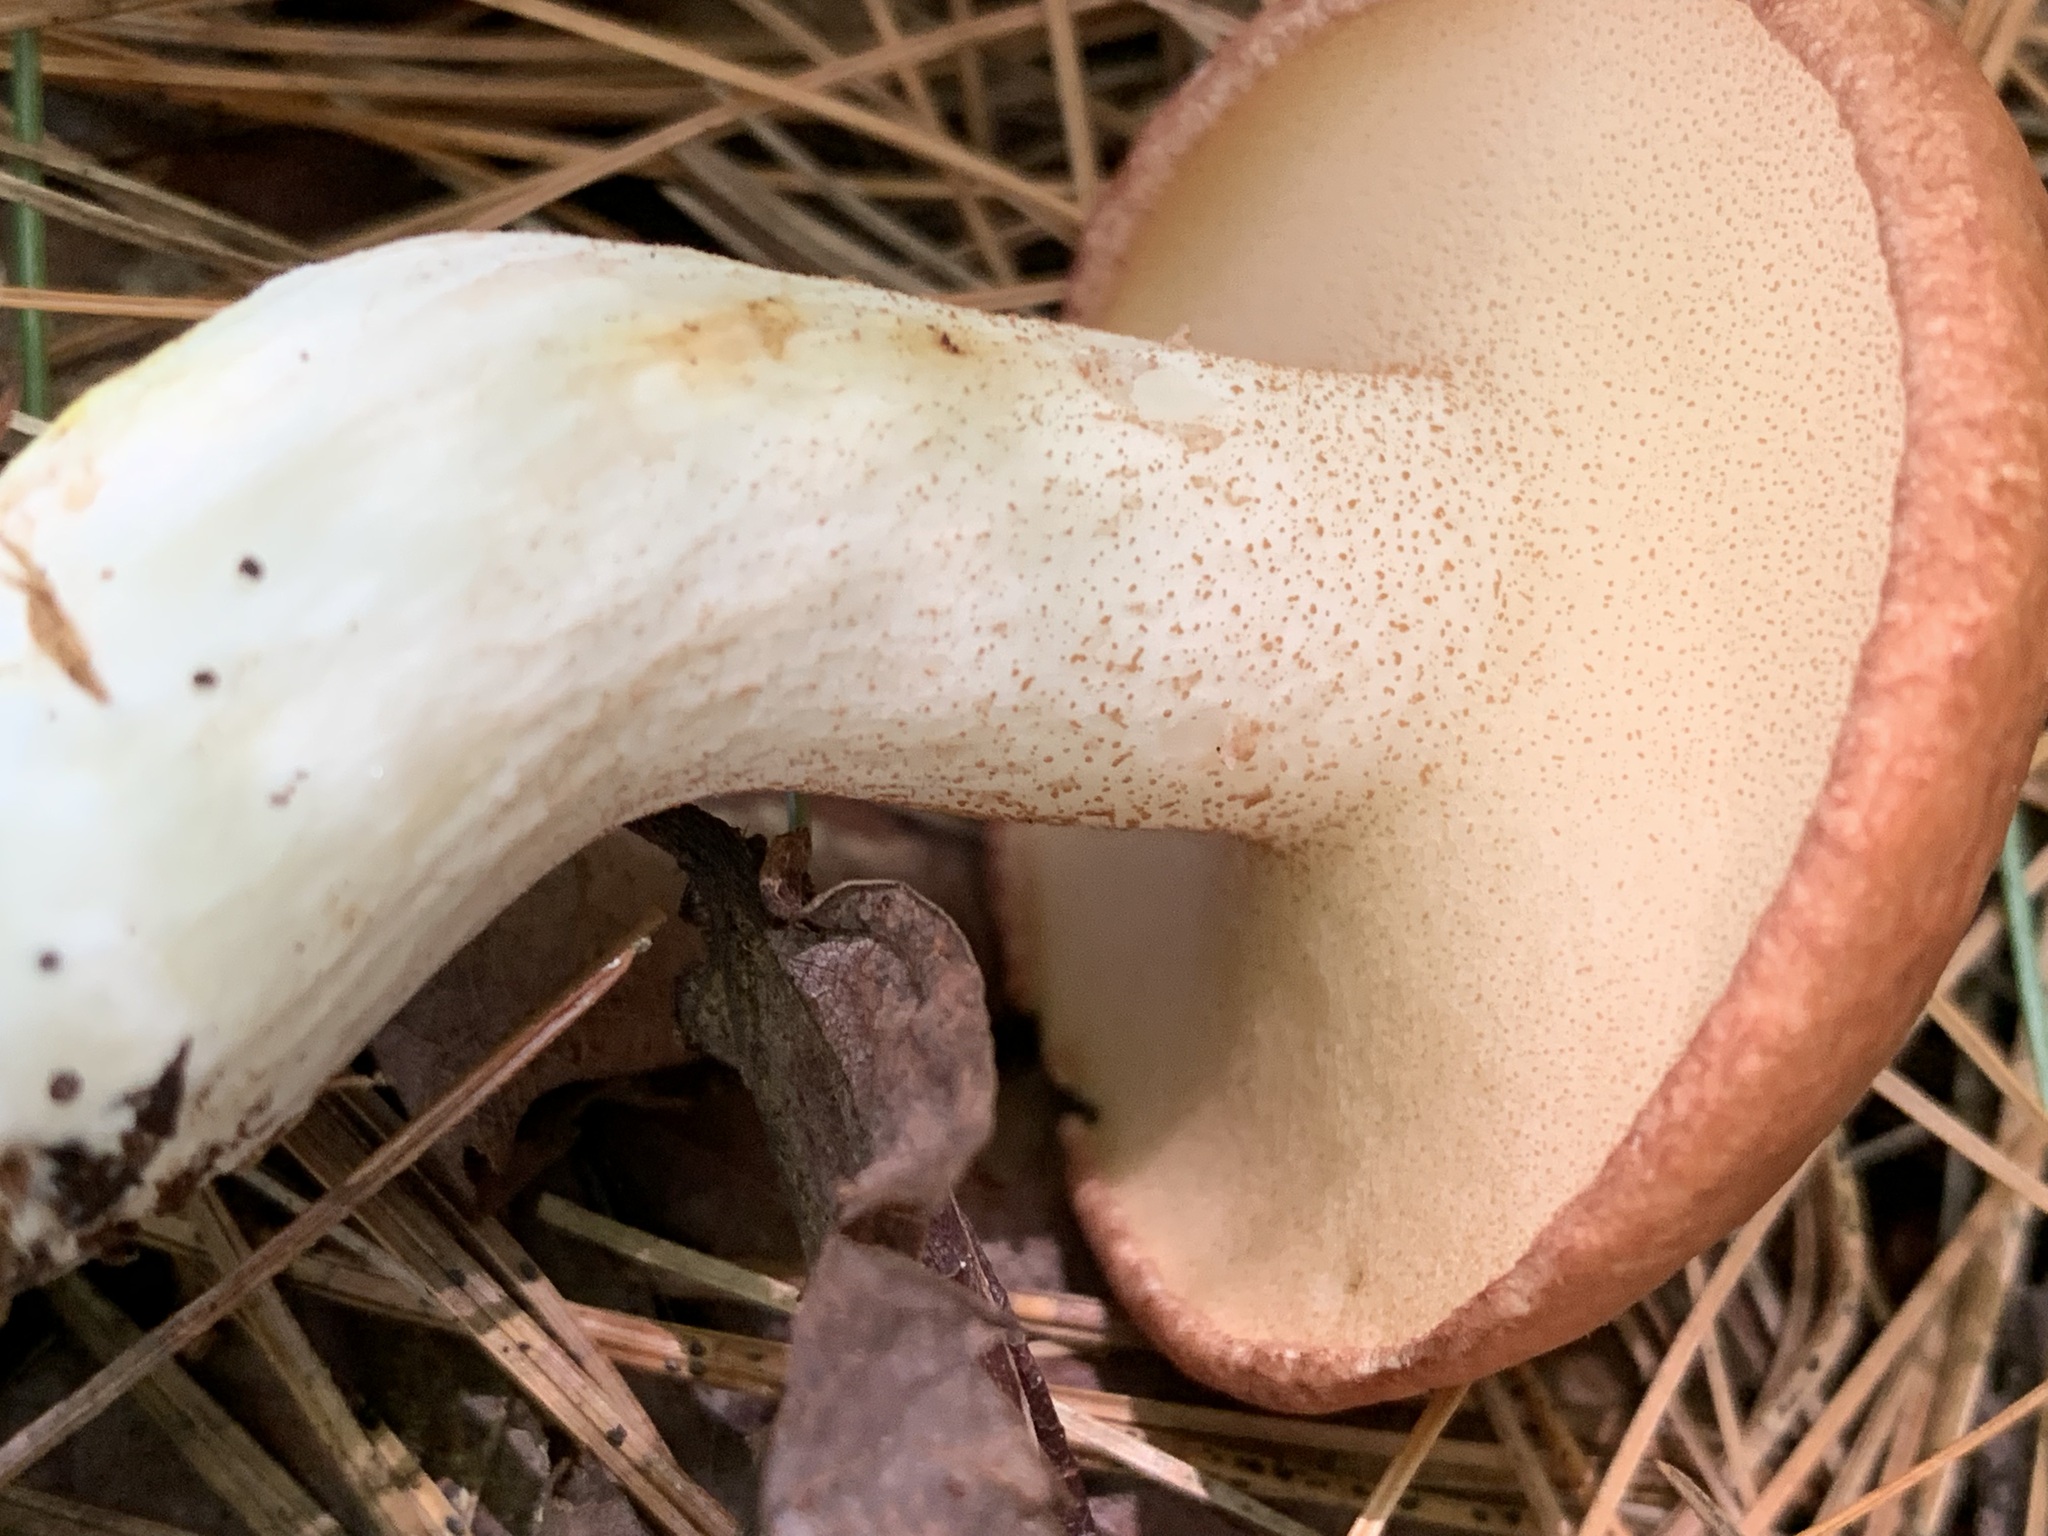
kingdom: Fungi
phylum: Basidiomycota
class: Agaricomycetes
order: Boletales
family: Suillaceae
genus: Fuscoboletinus
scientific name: Fuscoboletinus weaverae
